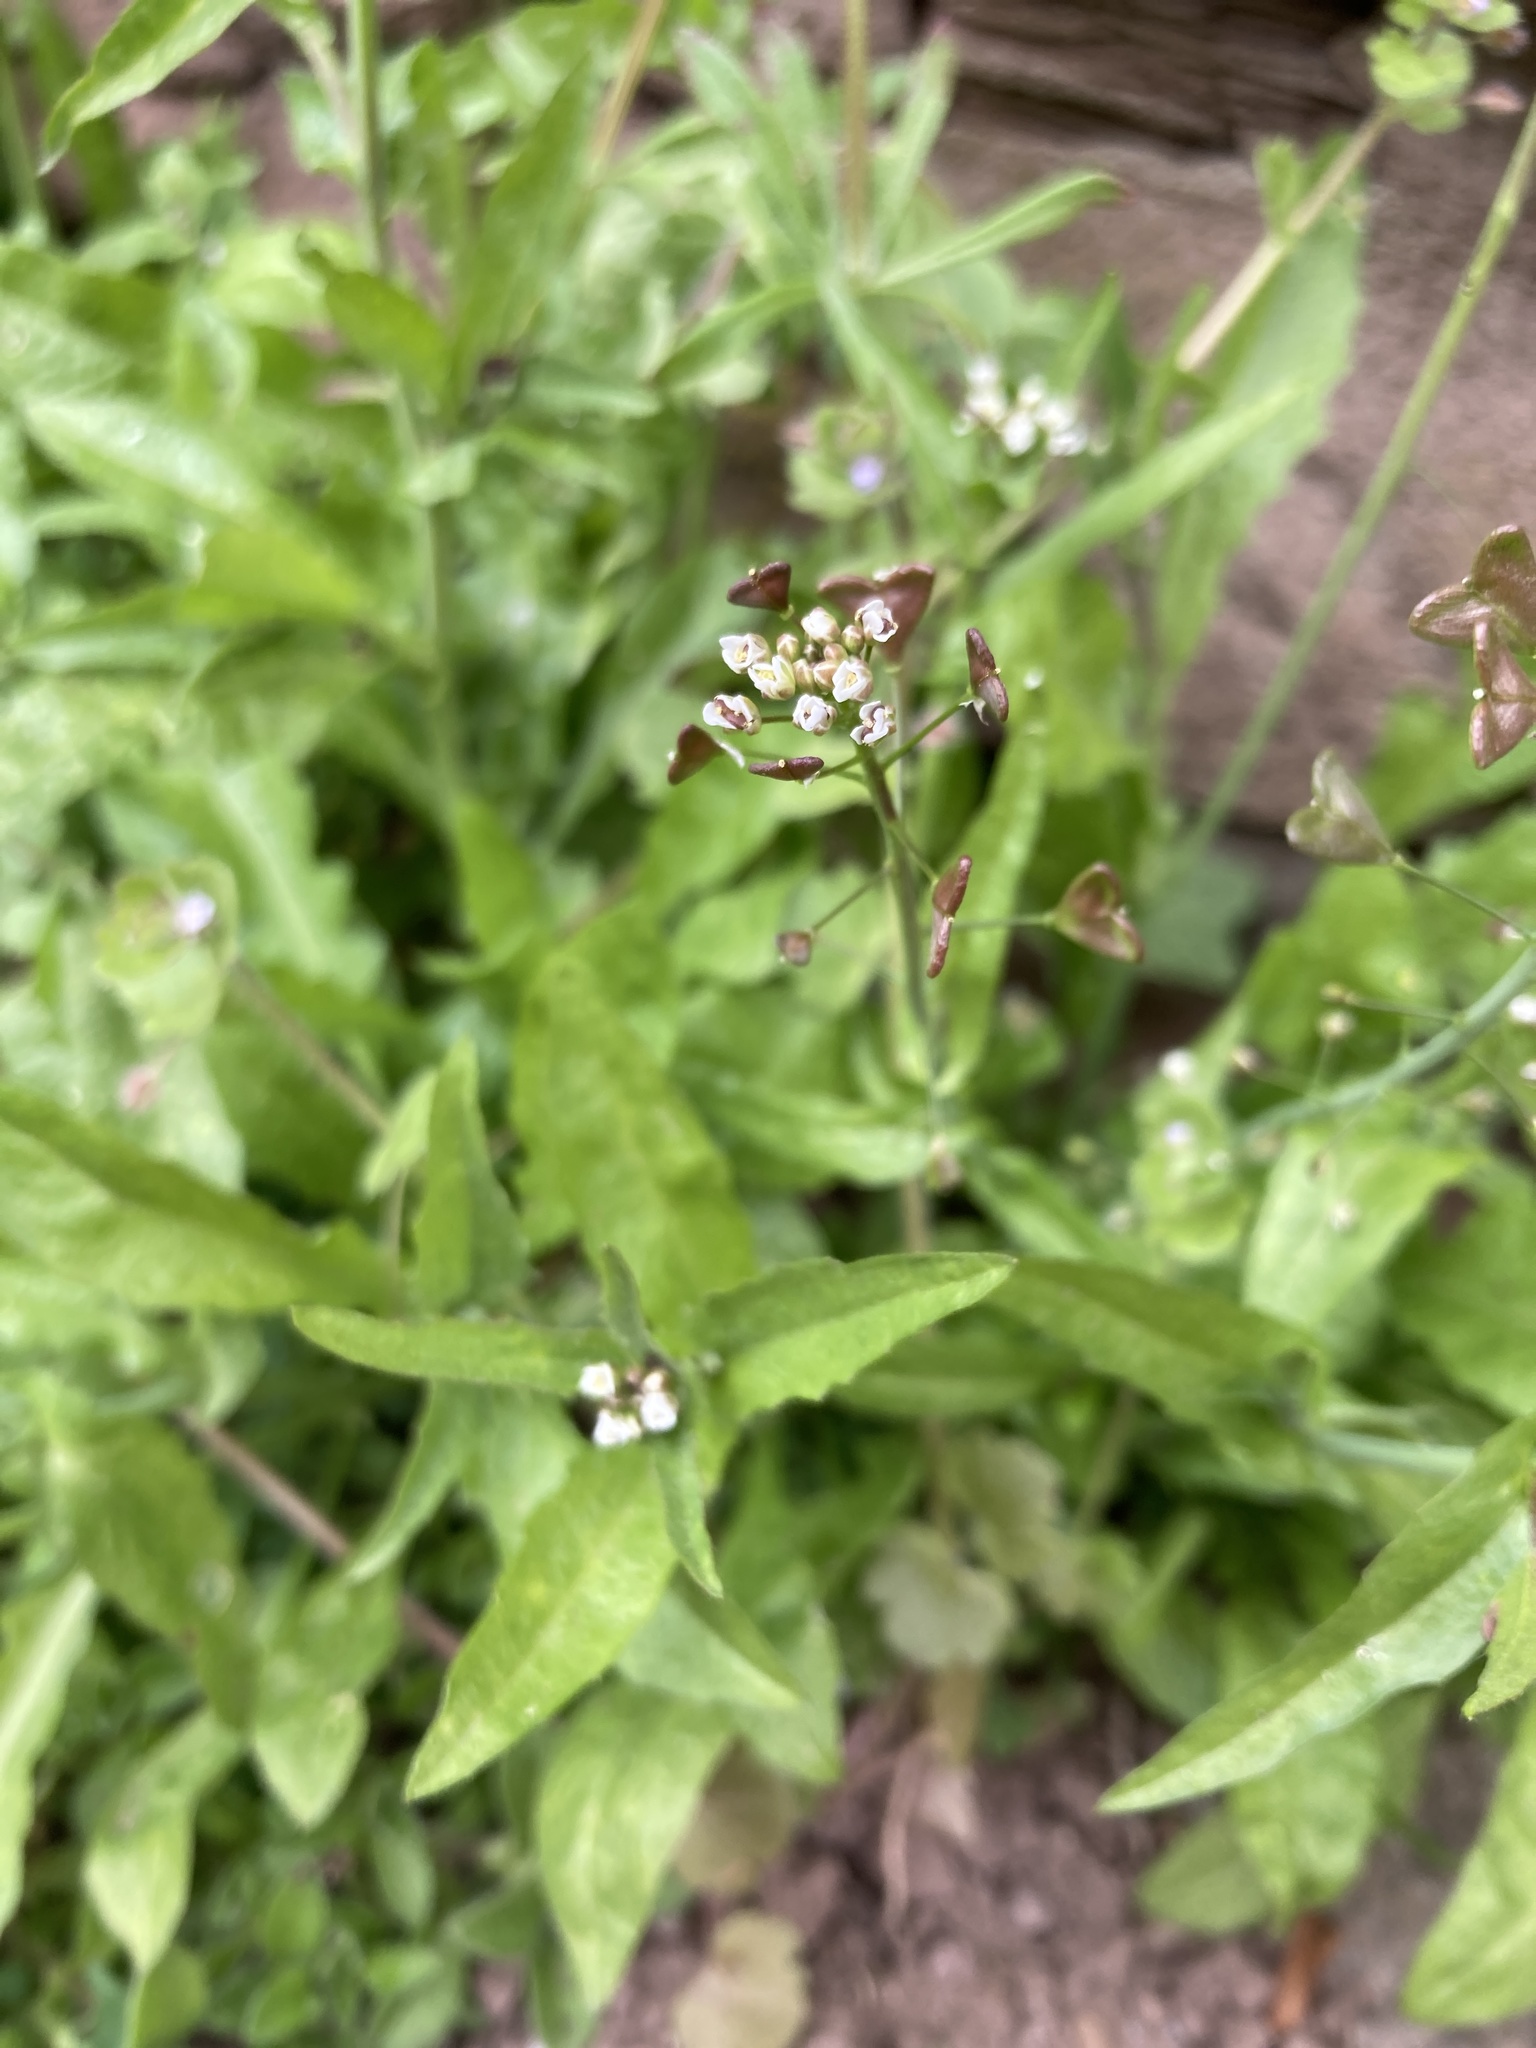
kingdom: Plantae
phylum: Tracheophyta
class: Magnoliopsida
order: Brassicales
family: Brassicaceae
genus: Capsella
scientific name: Capsella bursa-pastoris
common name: Shepherd's purse
